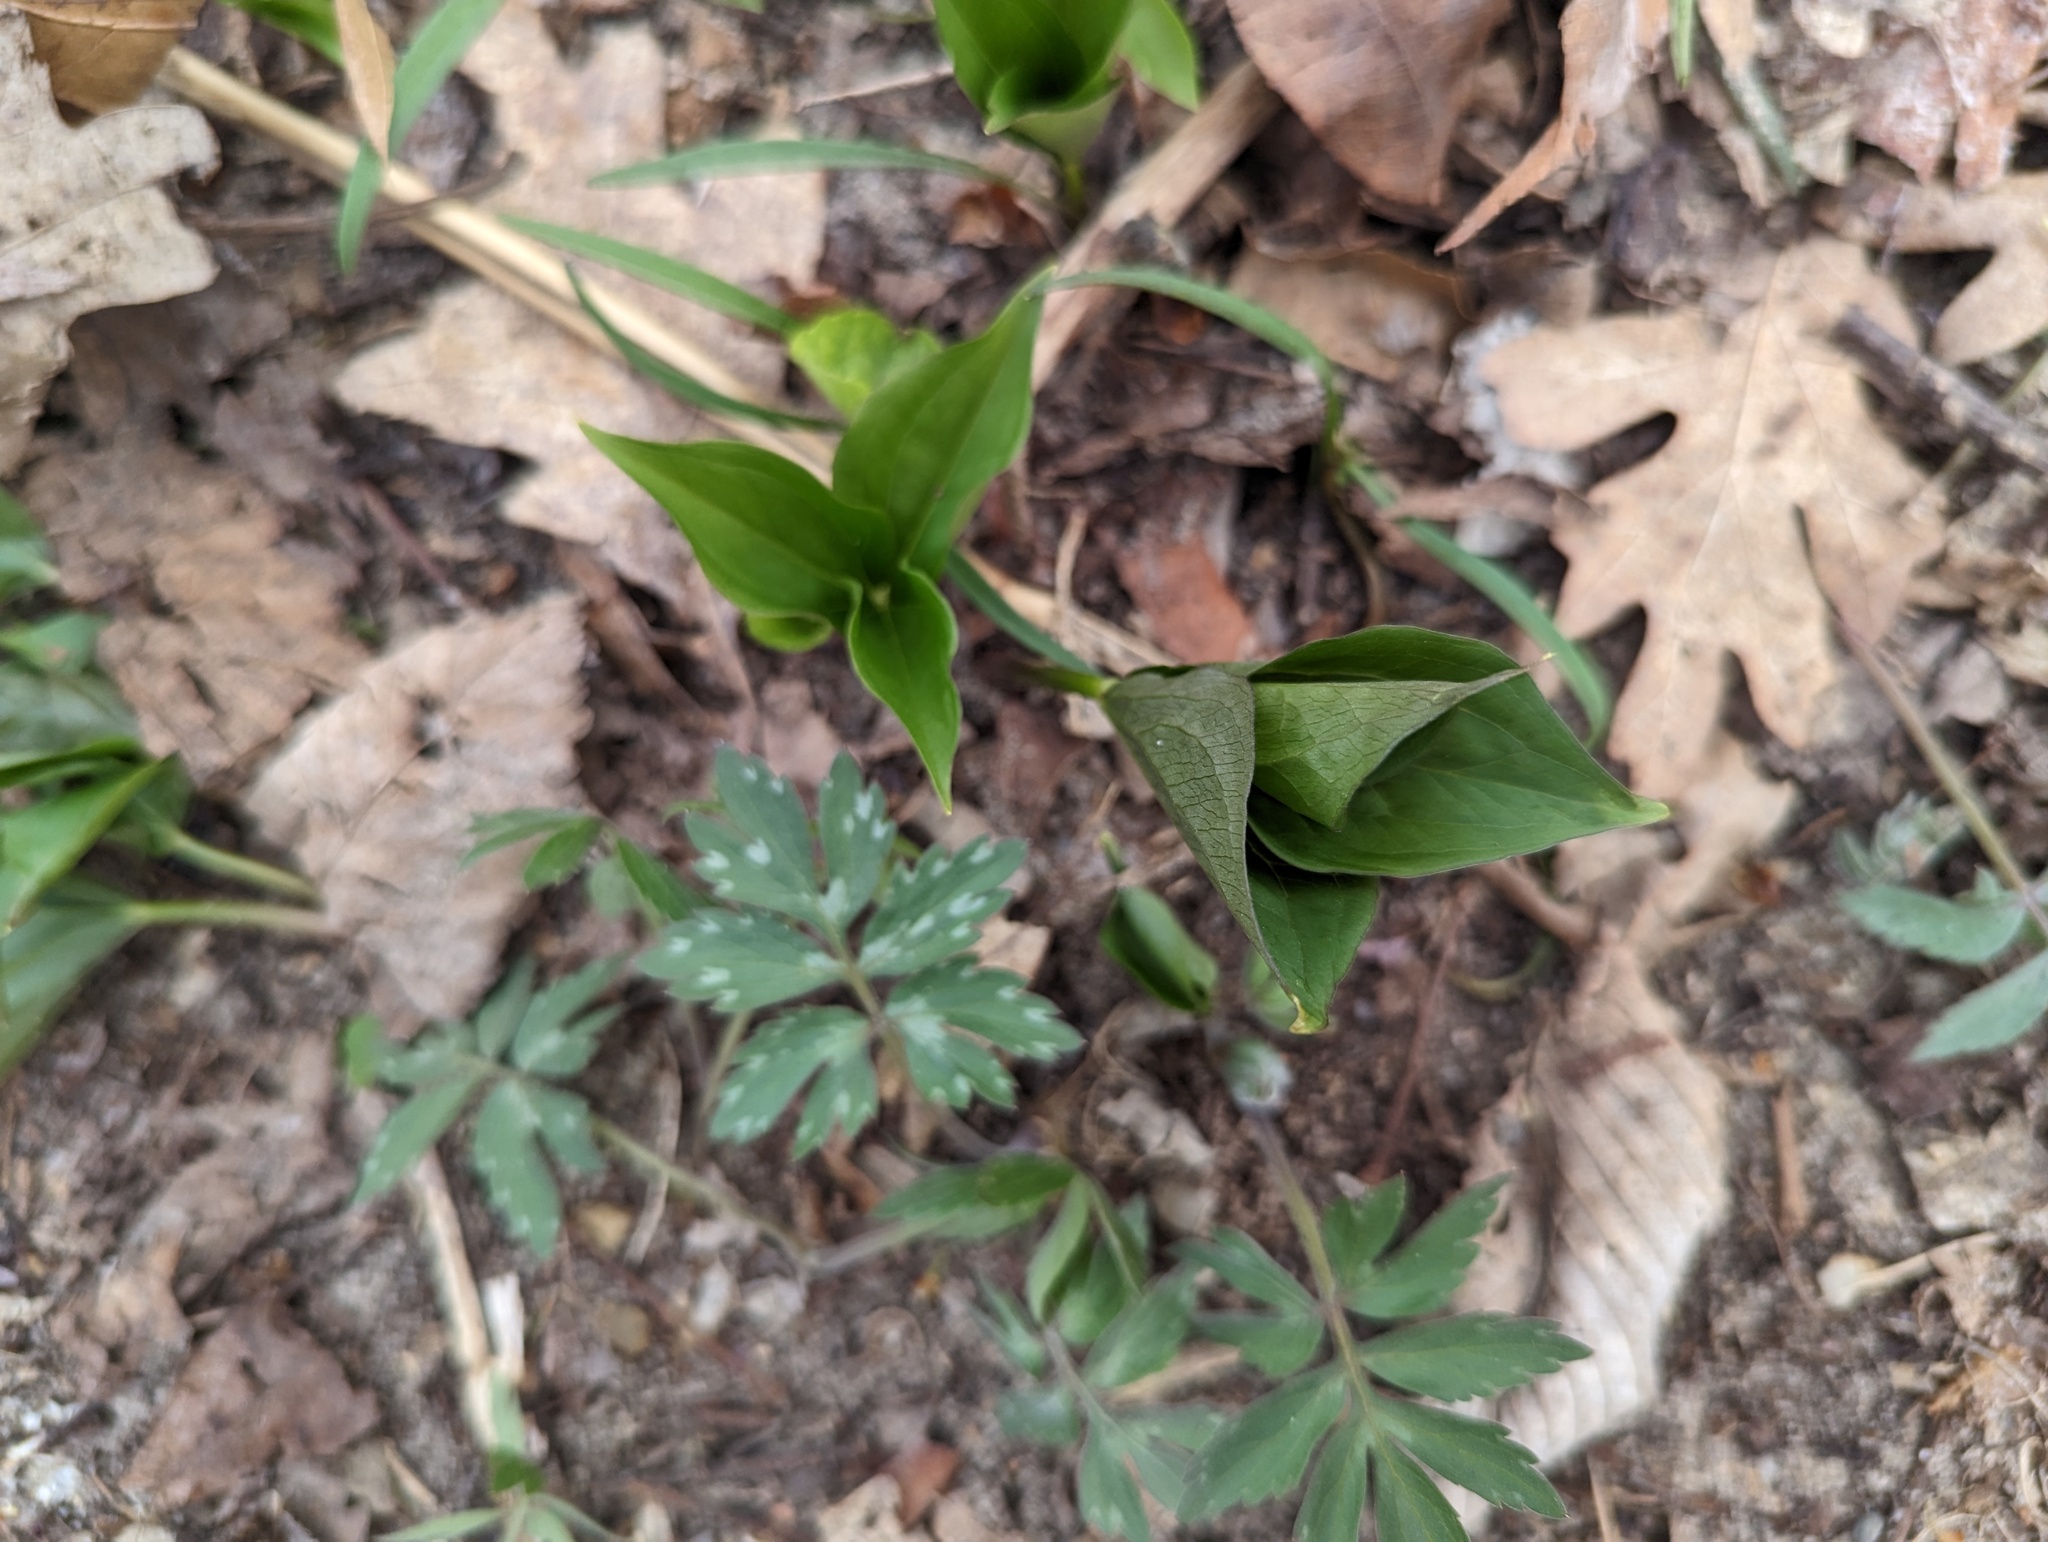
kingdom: Plantae
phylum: Tracheophyta
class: Liliopsida
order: Liliales
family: Melanthiaceae
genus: Trillium
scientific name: Trillium grandiflorum
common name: Great white trillium
